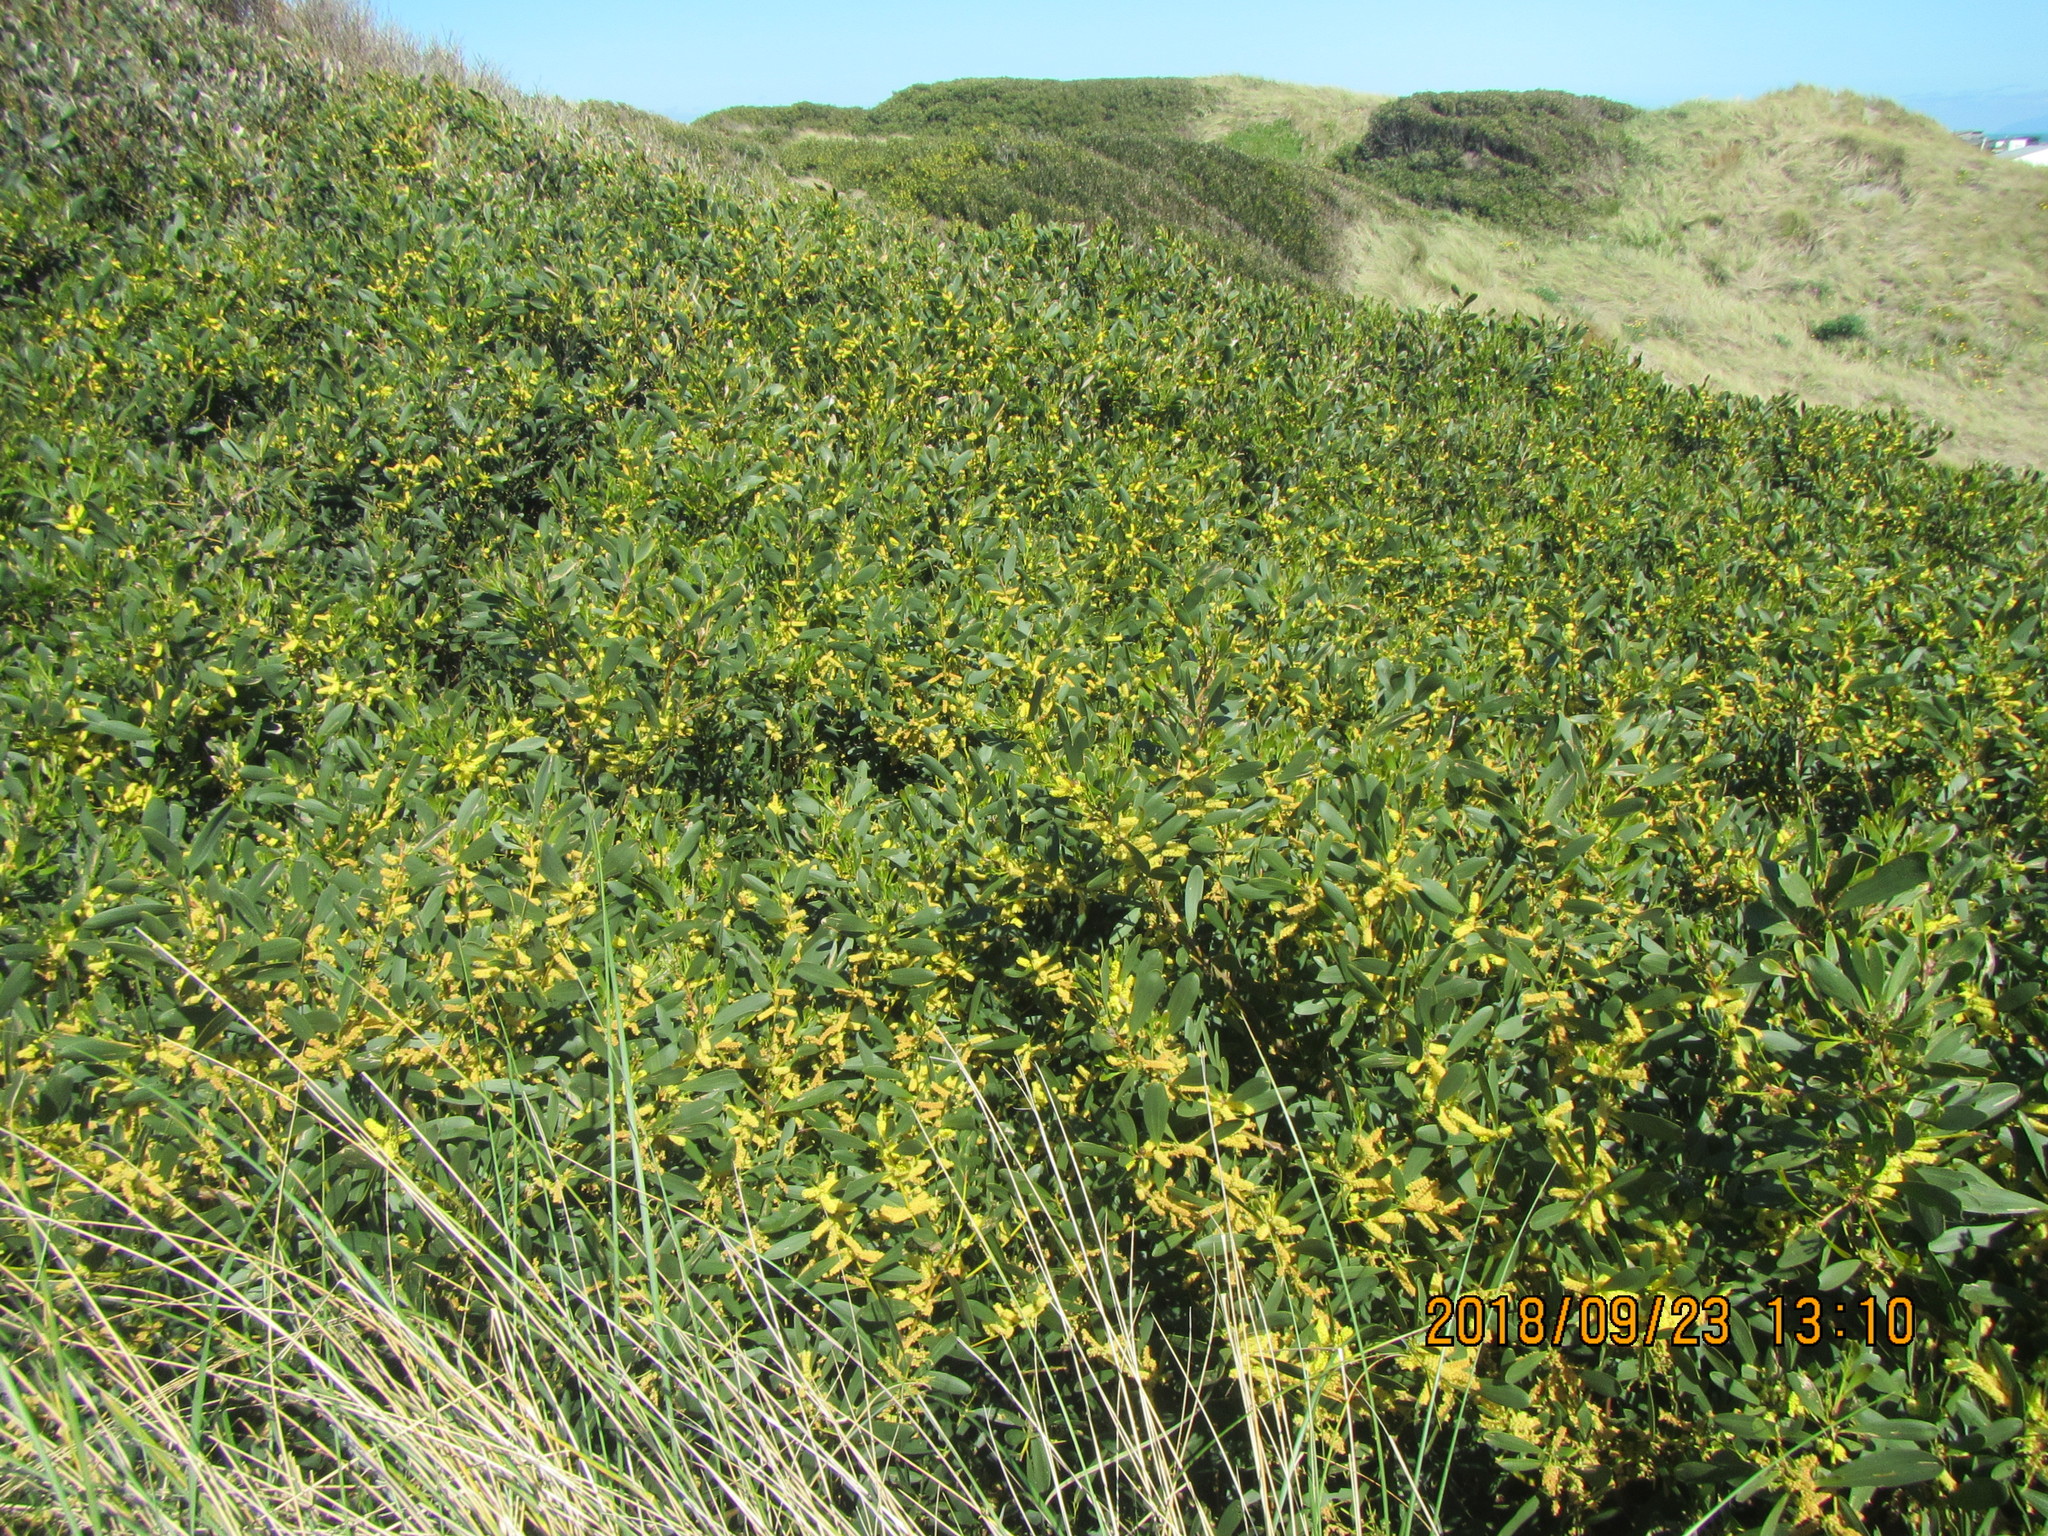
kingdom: Plantae
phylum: Tracheophyta
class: Magnoliopsida
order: Fabales
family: Fabaceae
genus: Acacia
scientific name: Acacia longifolia
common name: Sydney golden wattle
